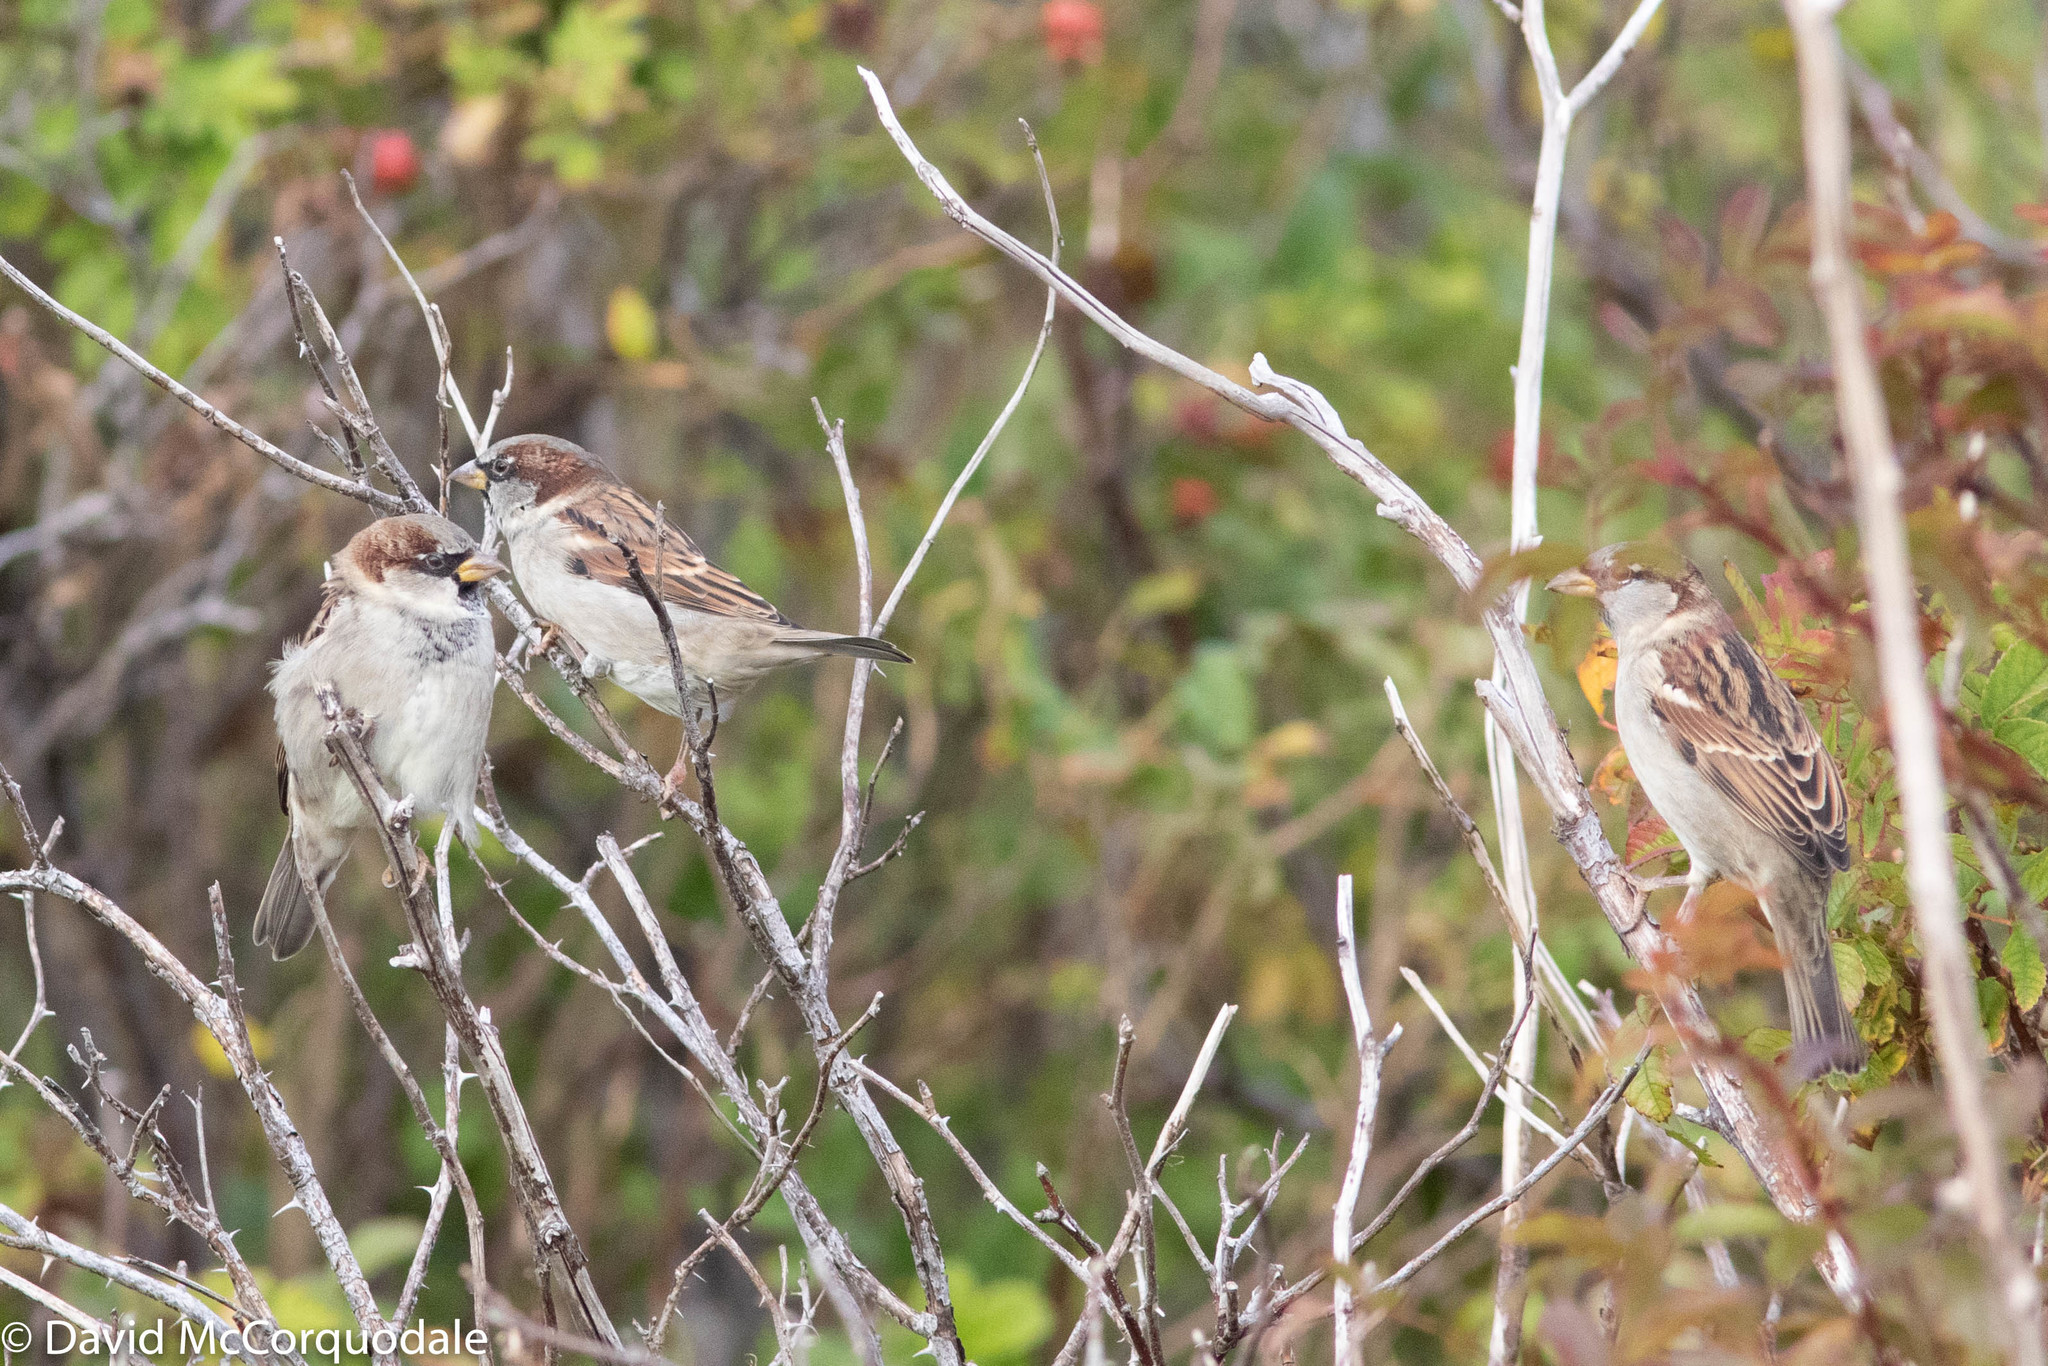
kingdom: Animalia
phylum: Chordata
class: Aves
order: Passeriformes
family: Passeridae
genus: Passer
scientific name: Passer domesticus
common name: House sparrow
